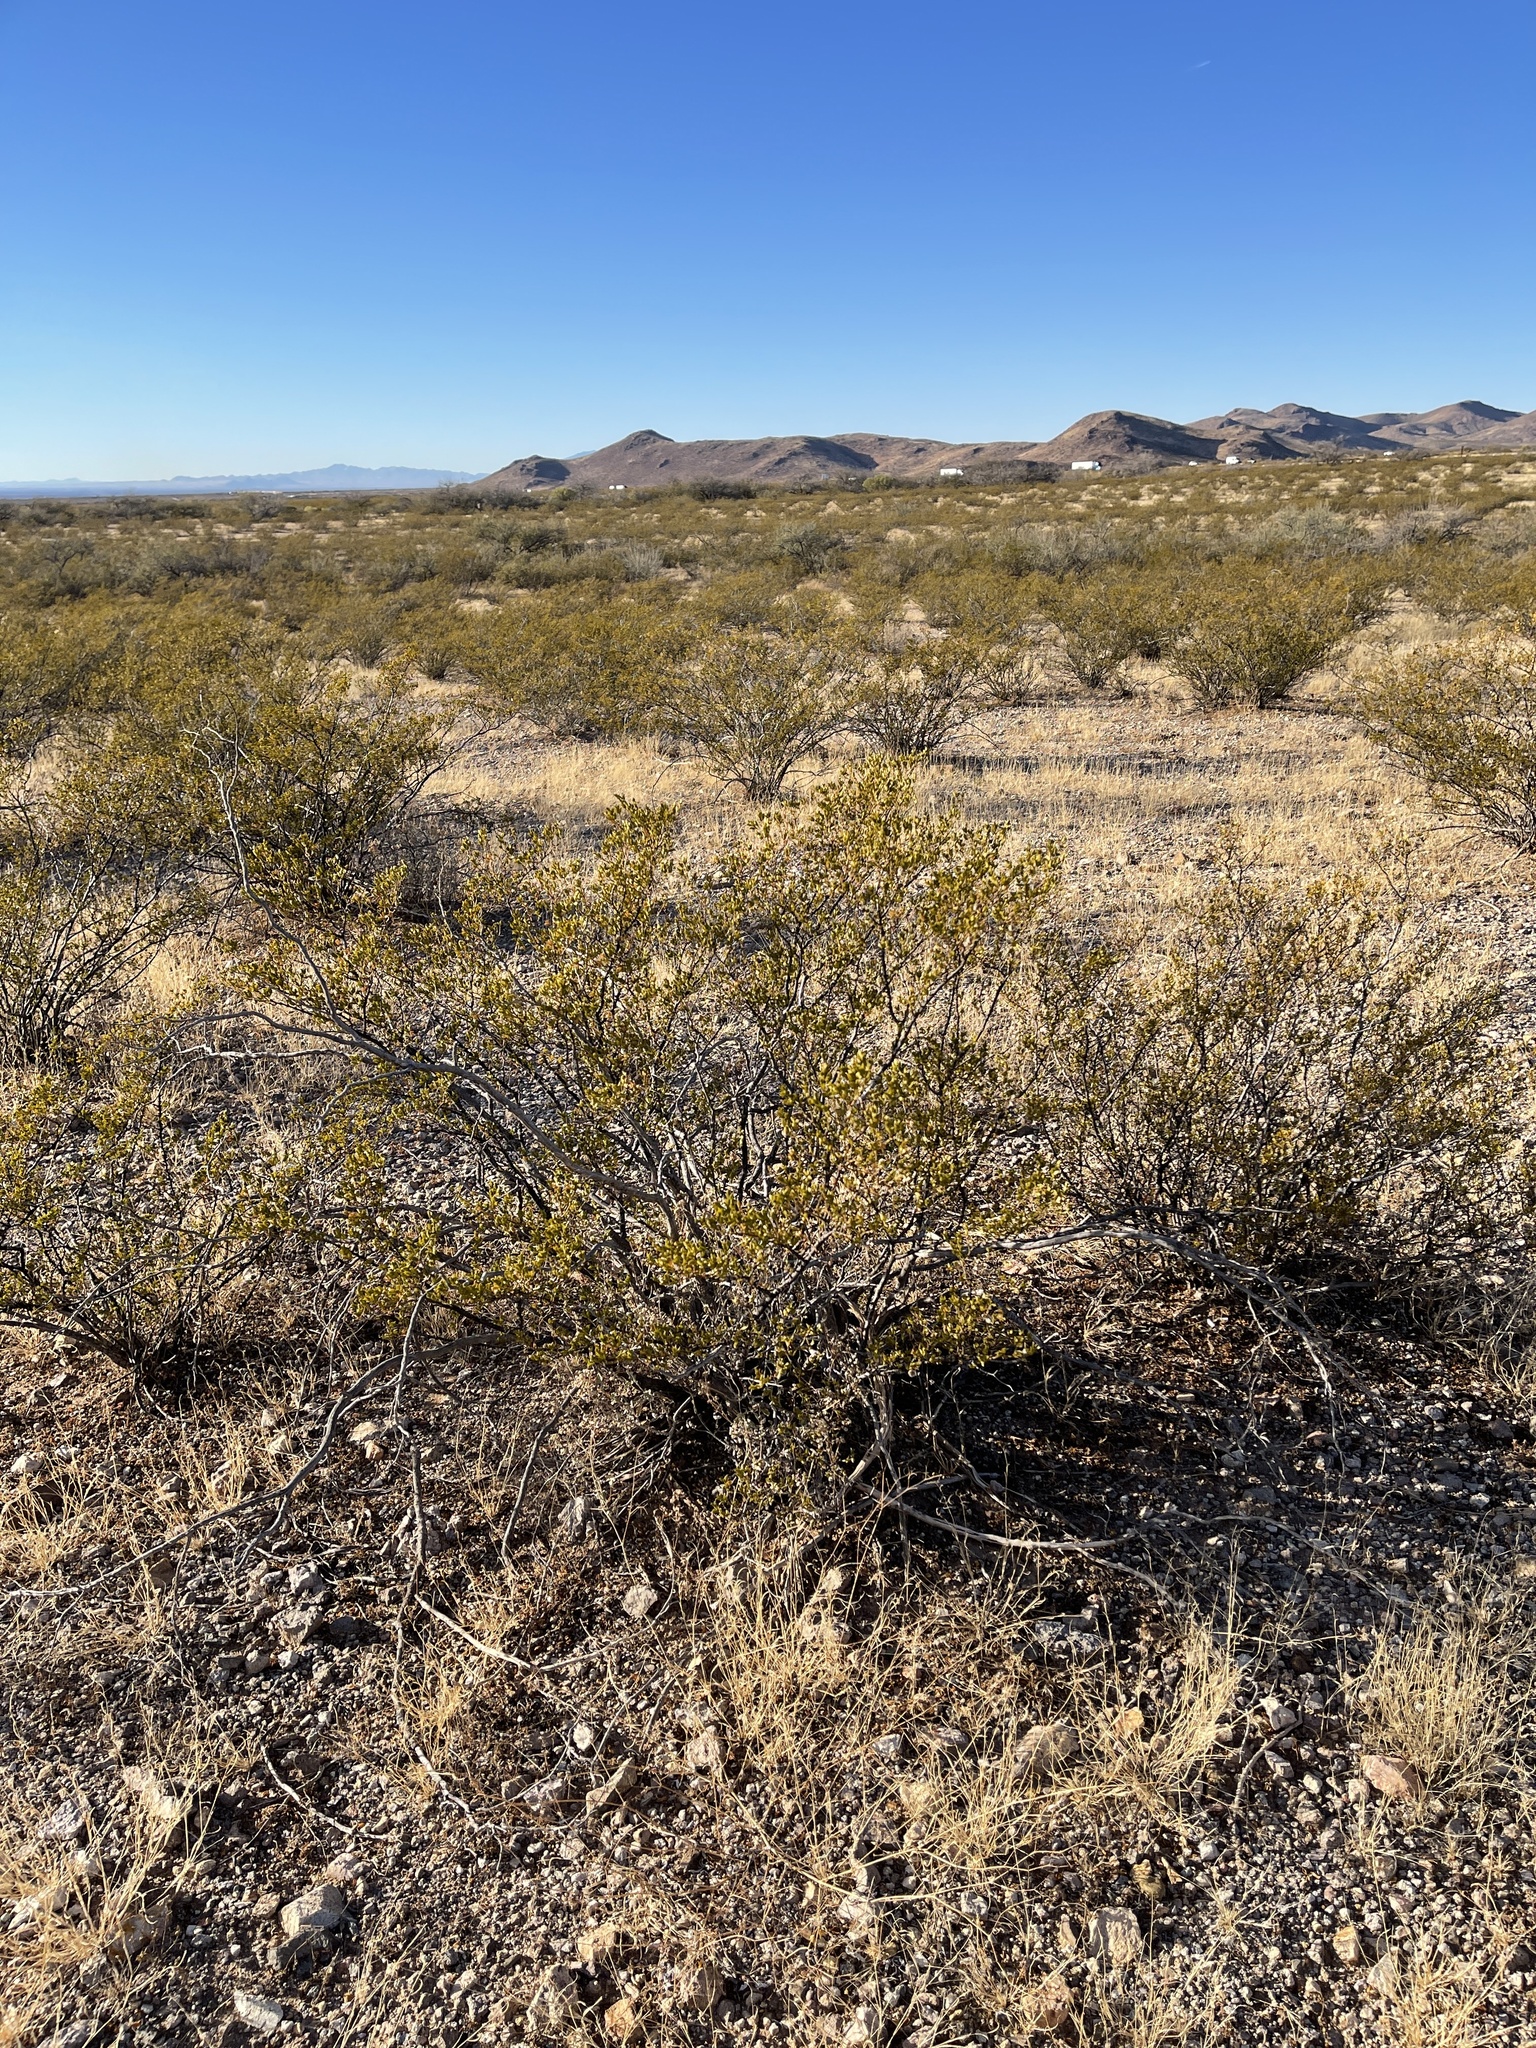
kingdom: Plantae
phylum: Tracheophyta
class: Magnoliopsida
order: Zygophyllales
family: Zygophyllaceae
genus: Larrea
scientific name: Larrea tridentata
